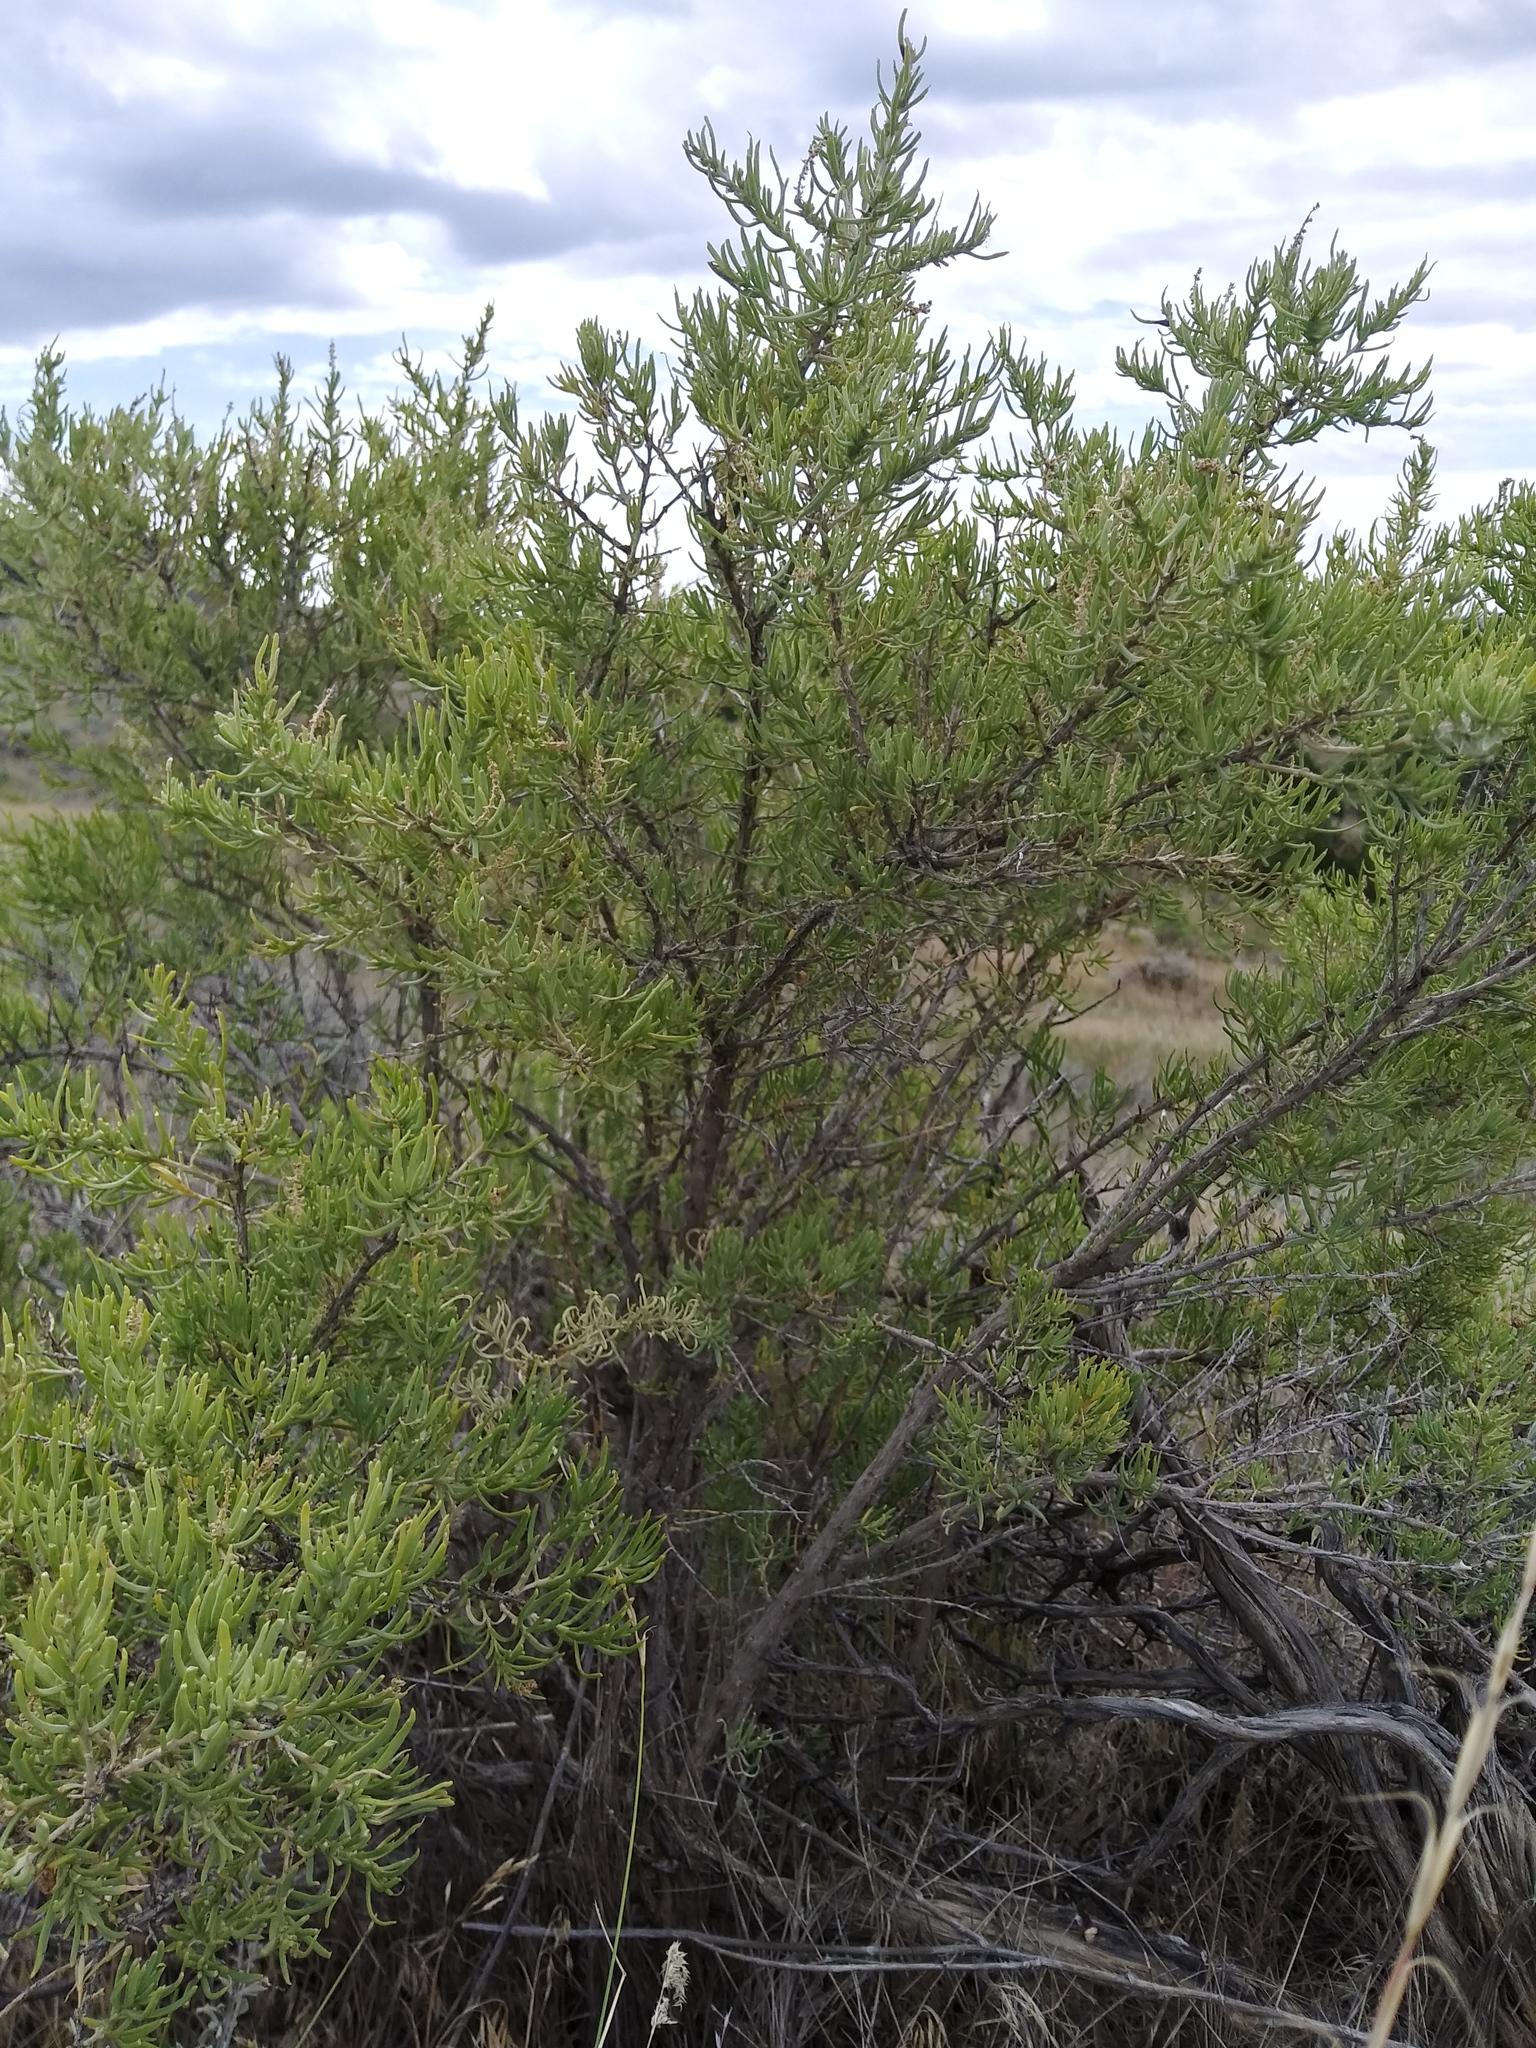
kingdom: Plantae
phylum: Tracheophyta
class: Magnoliopsida
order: Caryophyllales
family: Sarcobataceae
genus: Sarcobatus
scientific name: Sarcobatus vermiculatus
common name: Greasewood
